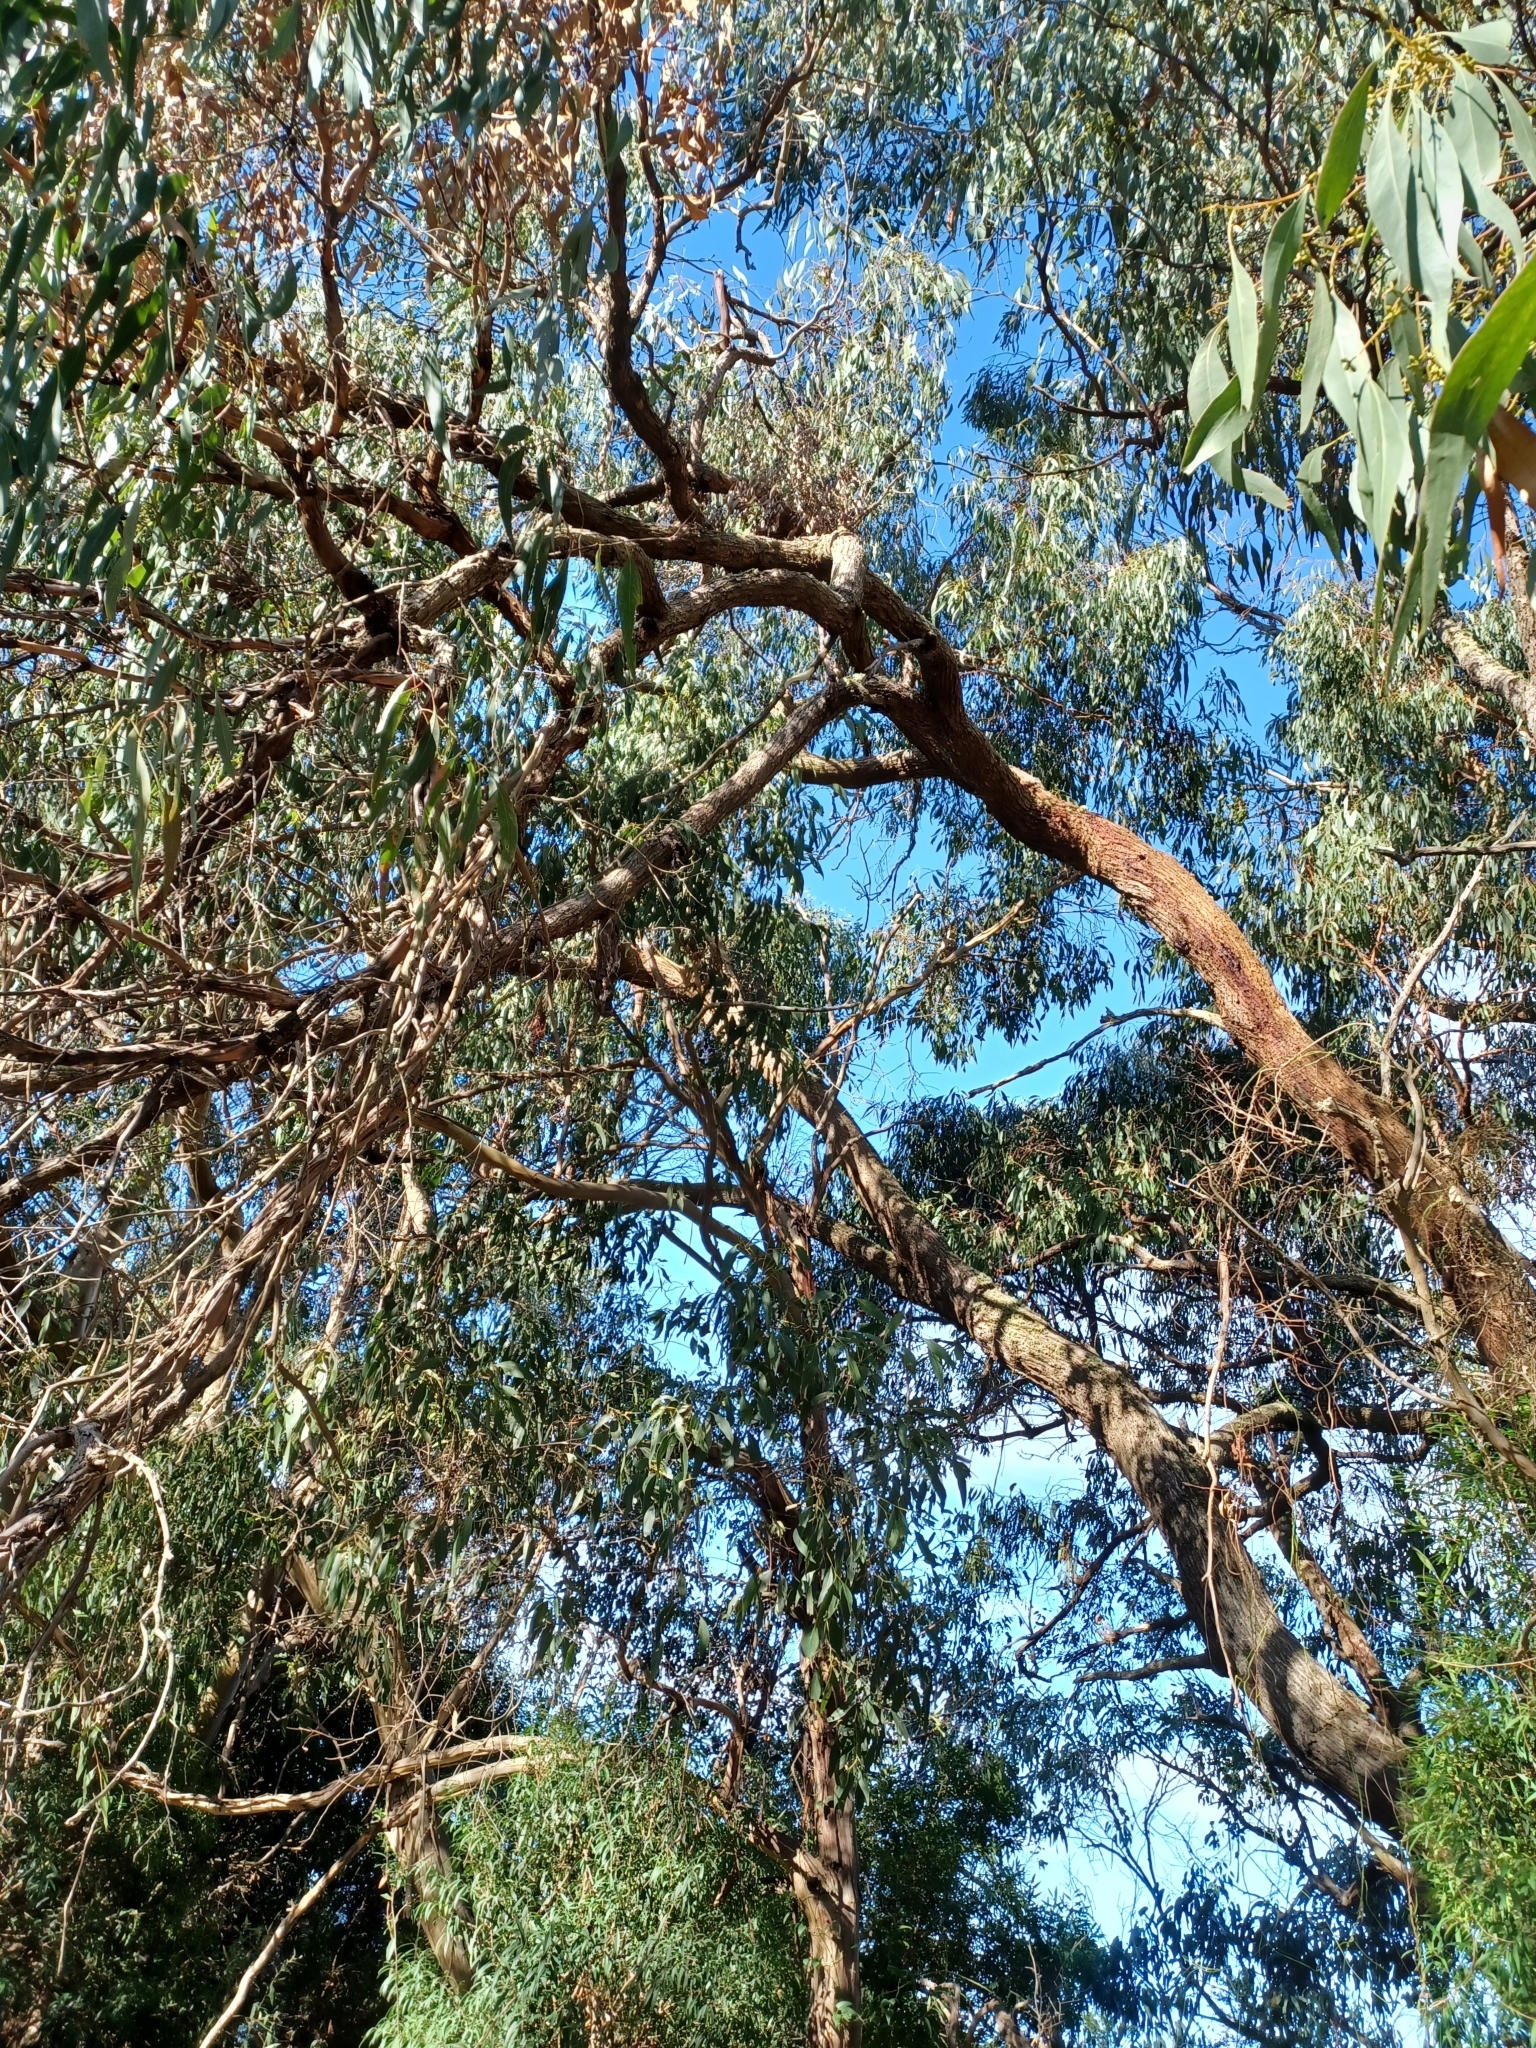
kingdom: Plantae
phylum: Tracheophyta
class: Magnoliopsida
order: Myrtales
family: Myrtaceae
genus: Eucalyptus
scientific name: Eucalyptus aromaphloia
